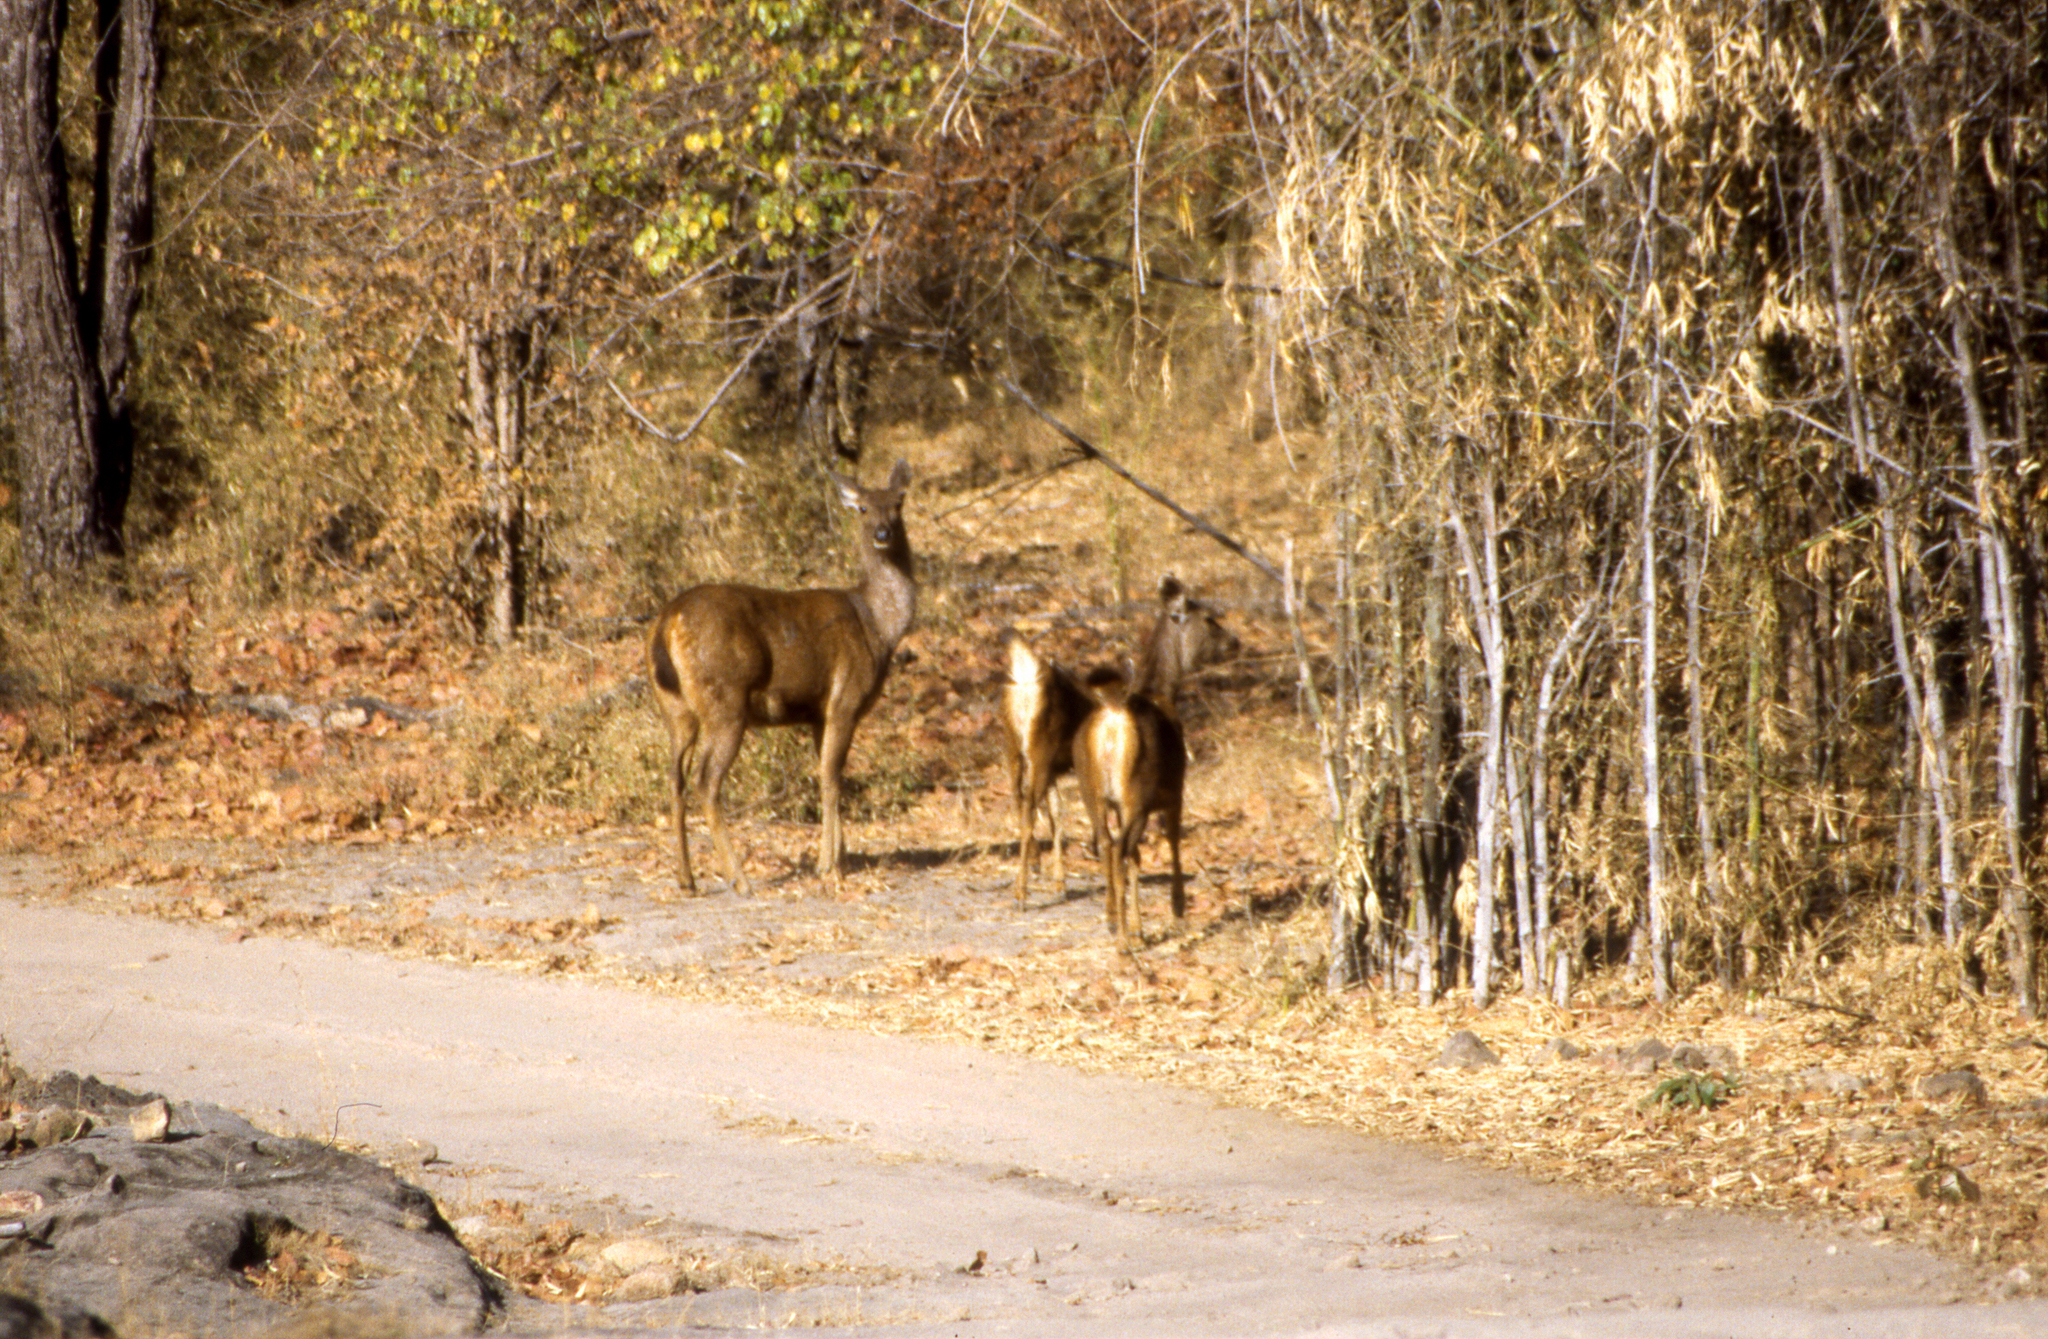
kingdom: Animalia
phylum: Chordata
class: Mammalia
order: Artiodactyla
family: Cervidae
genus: Rusa
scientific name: Rusa unicolor
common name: Sambar
